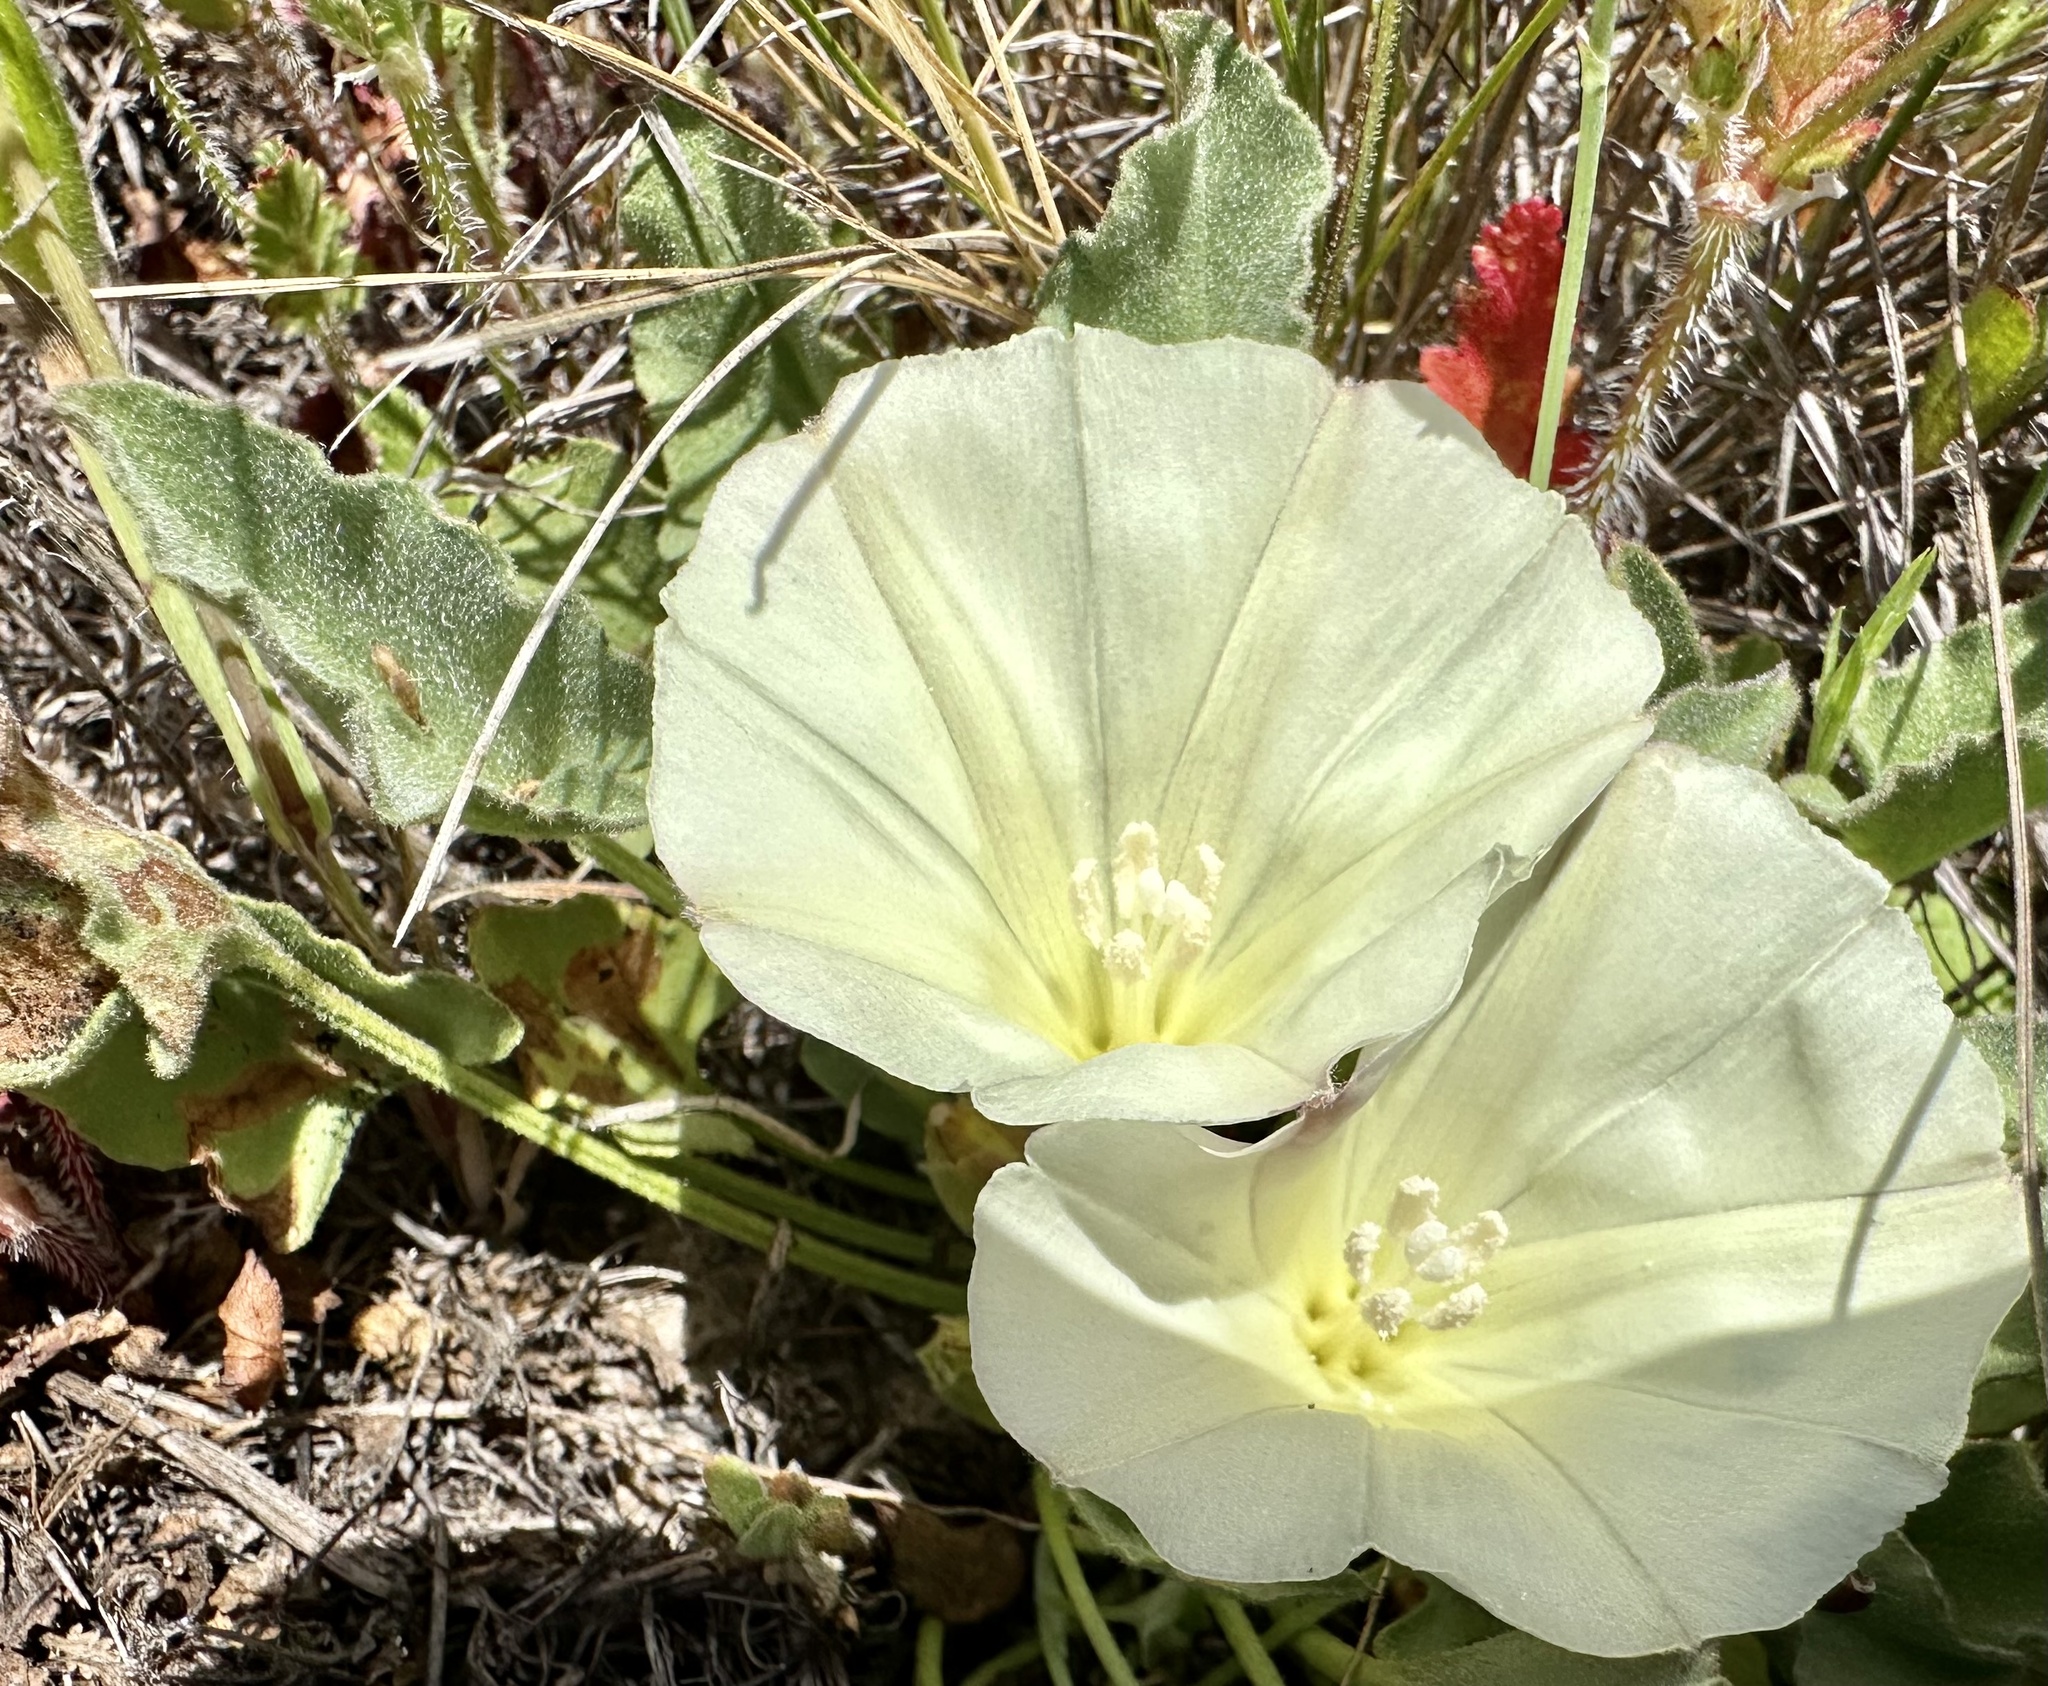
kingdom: Plantae
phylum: Tracheophyta
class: Magnoliopsida
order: Solanales
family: Convolvulaceae
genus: Calystegia
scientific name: Calystegia subacaulis
